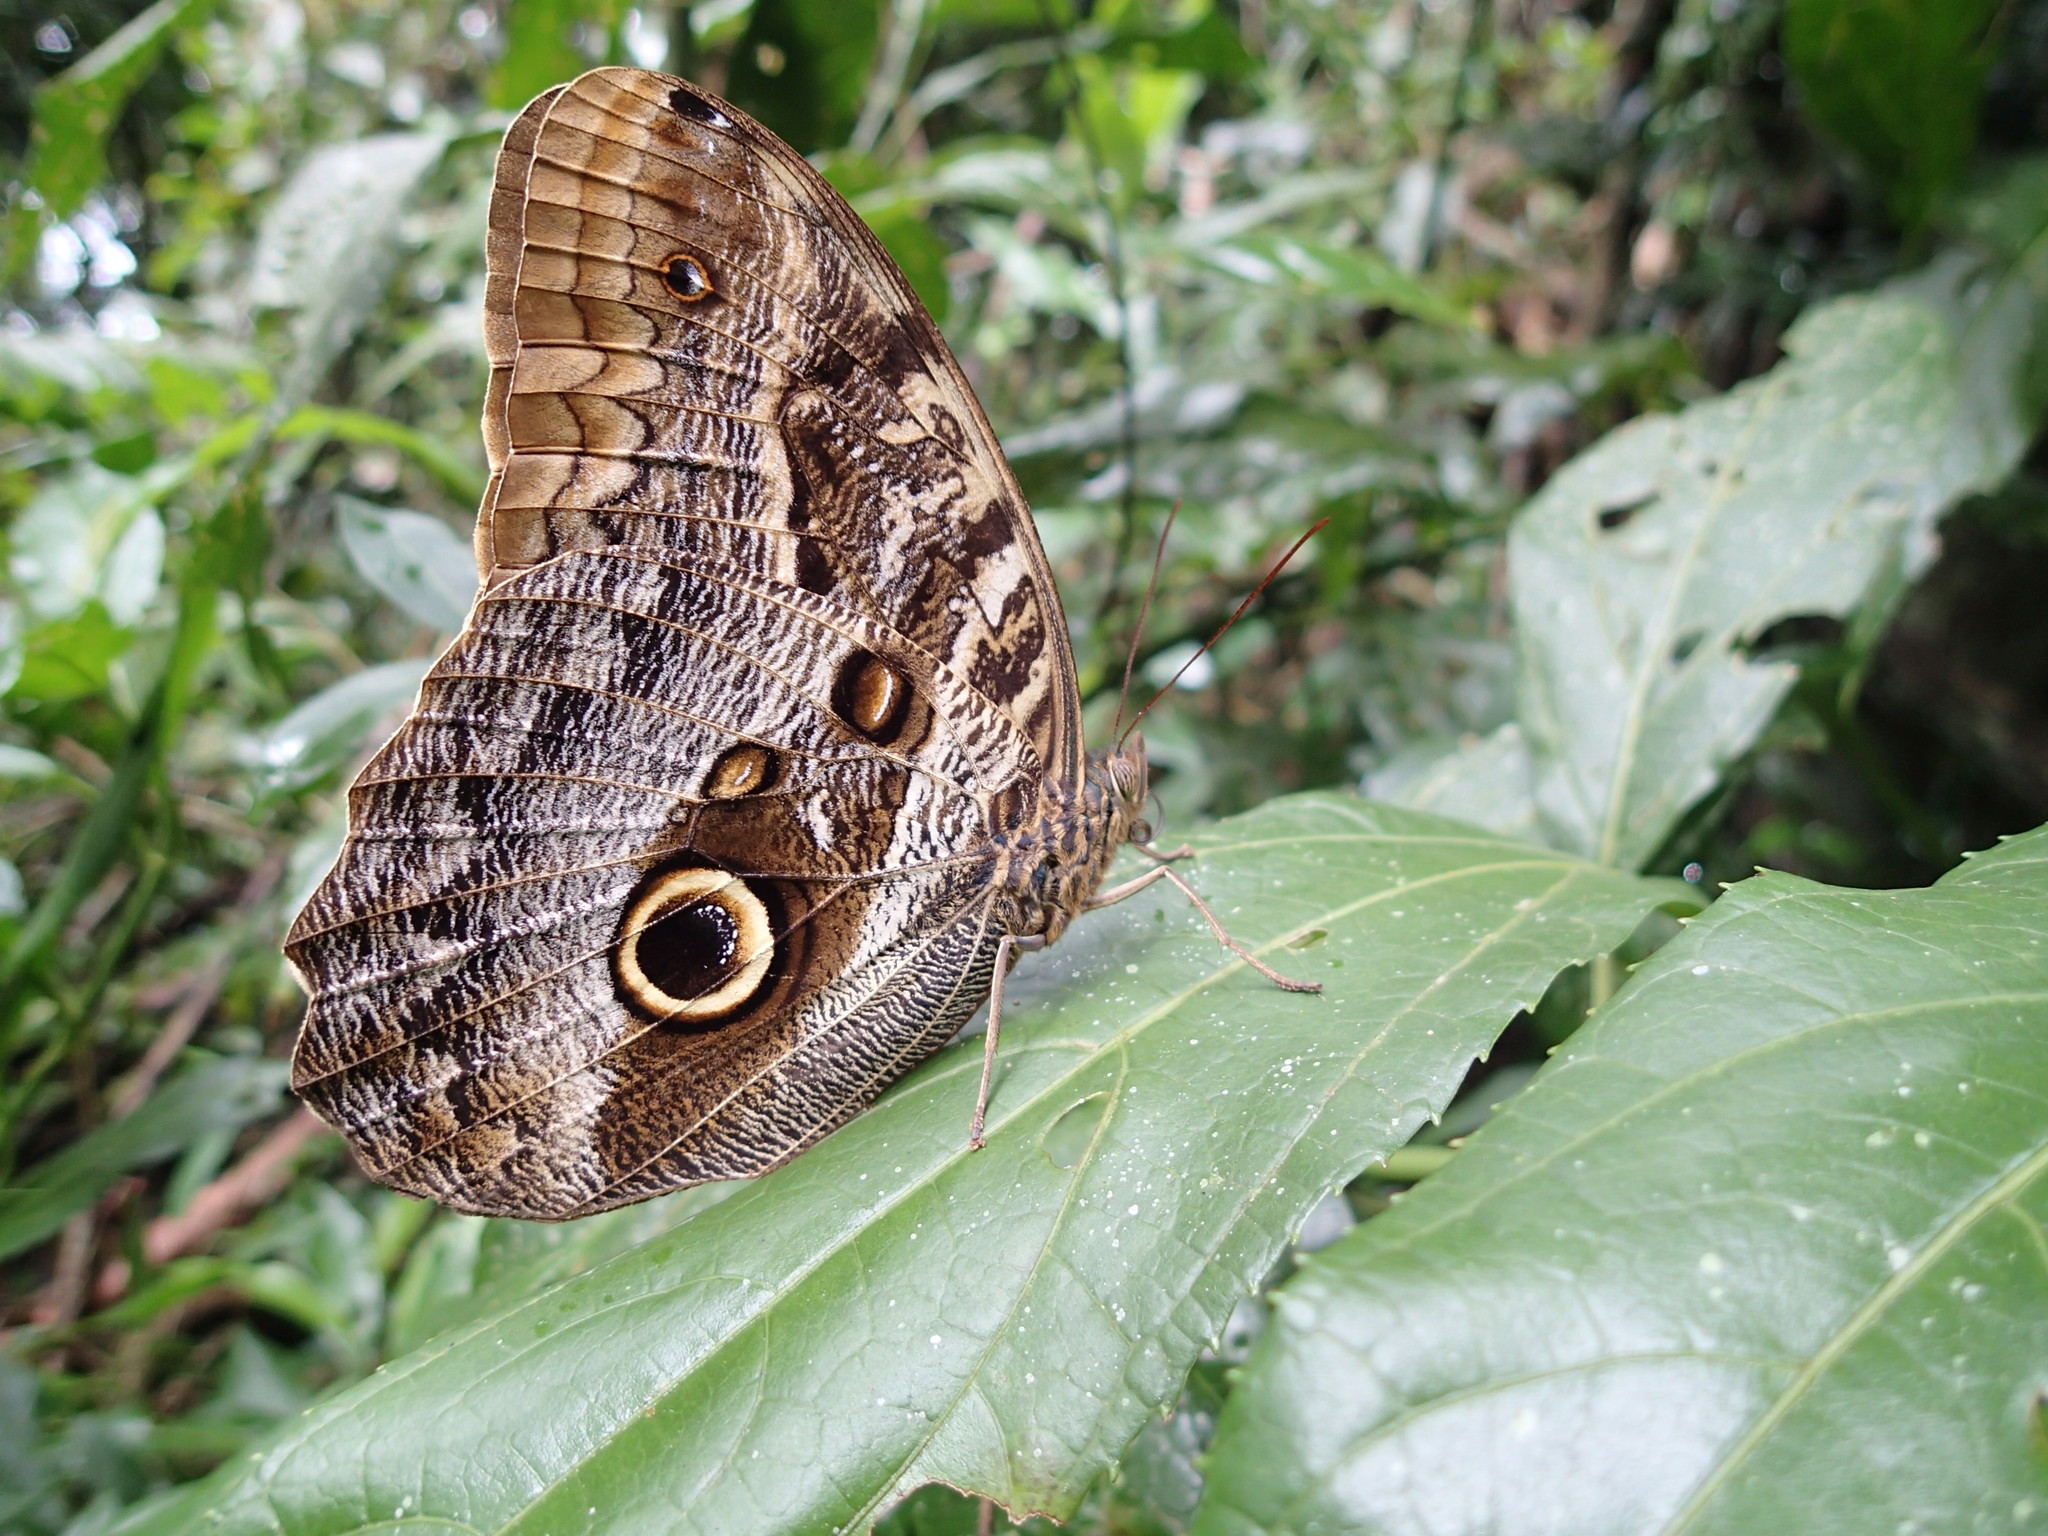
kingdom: Animalia
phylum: Arthropoda
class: Insecta
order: Lepidoptera
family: Nymphalidae
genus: Caligo
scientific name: Caligo illioneus
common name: Dusky owl-butterfly
